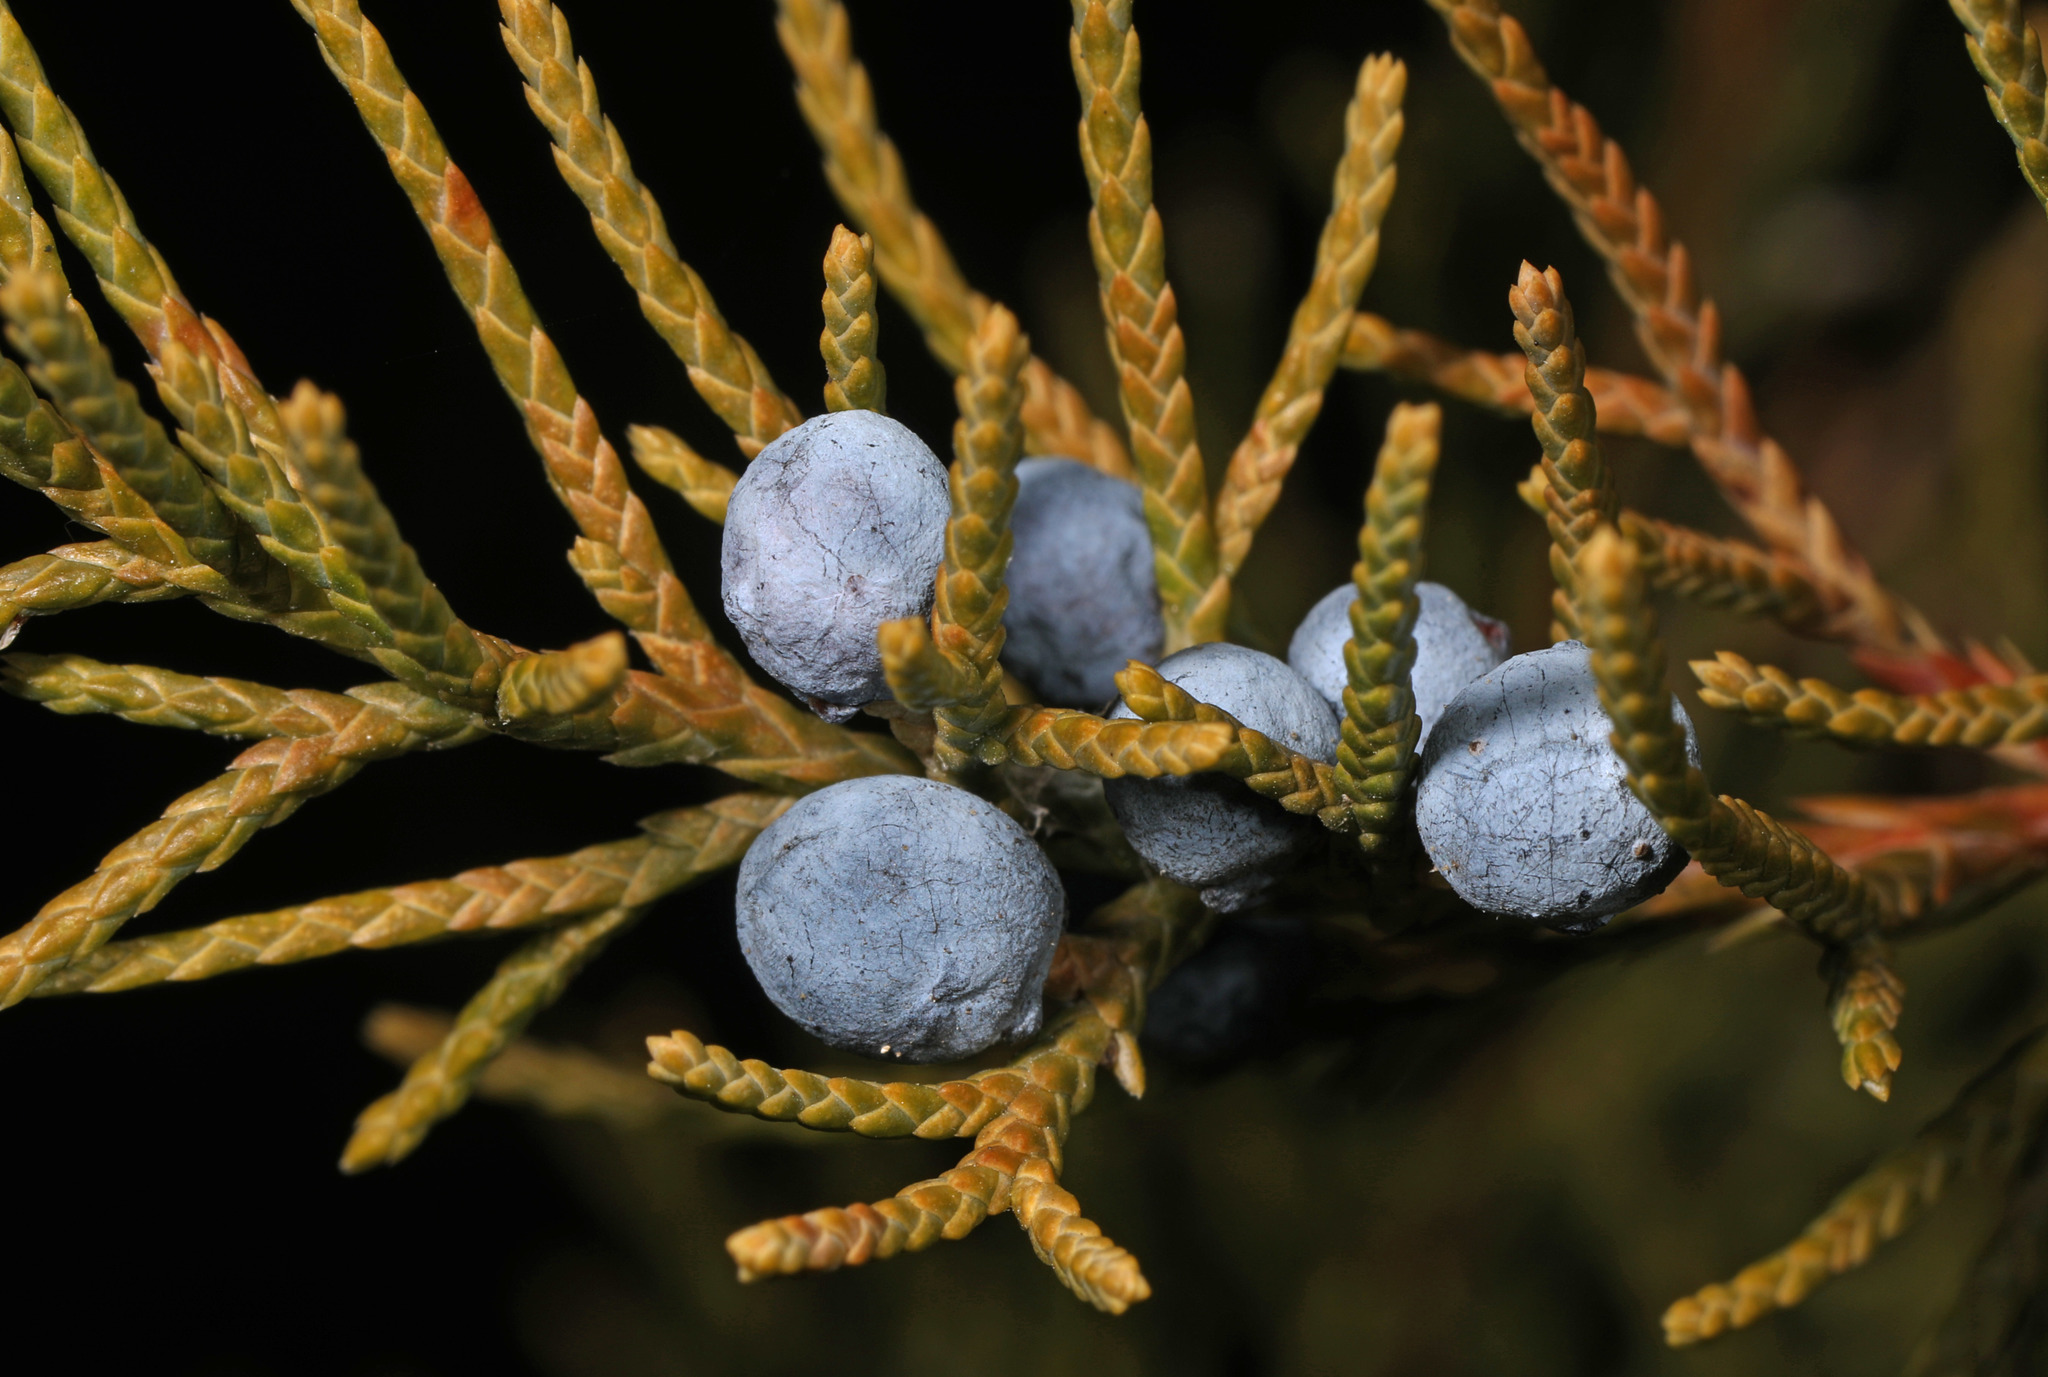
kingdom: Plantae
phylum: Tracheophyta
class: Pinopsida
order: Pinales
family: Cupressaceae
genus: Juniperus
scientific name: Juniperus virginiana
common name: Red juniper
